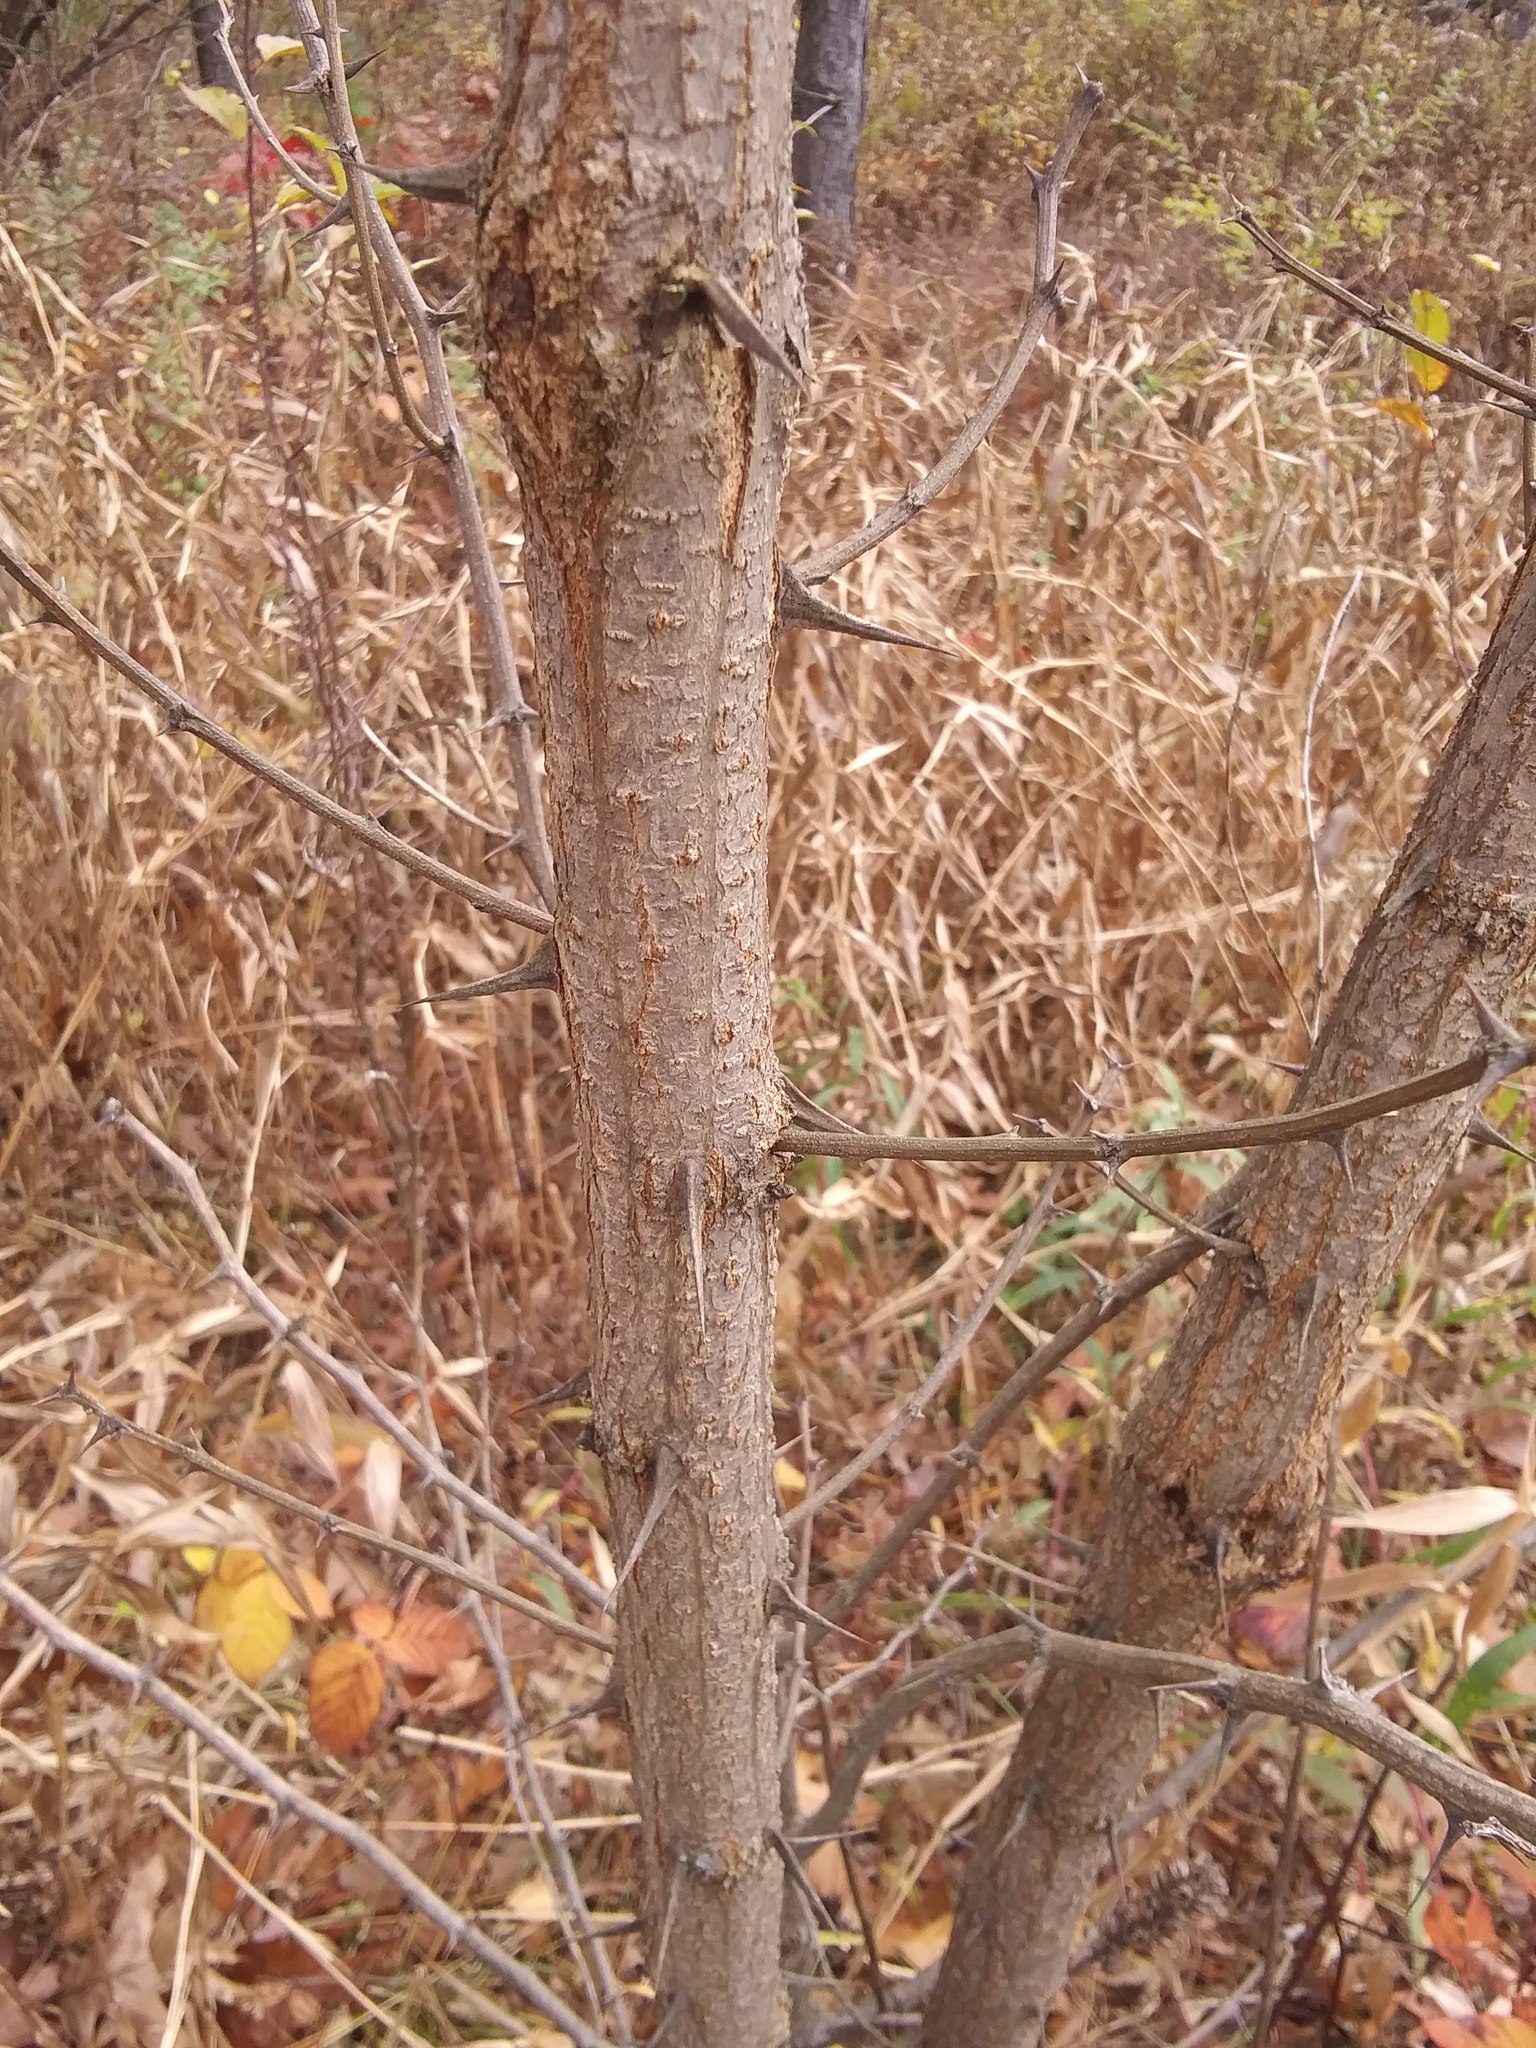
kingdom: Plantae
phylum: Tracheophyta
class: Magnoliopsida
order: Fabales
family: Fabaceae
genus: Robinia
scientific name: Robinia pseudoacacia
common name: Black locust
